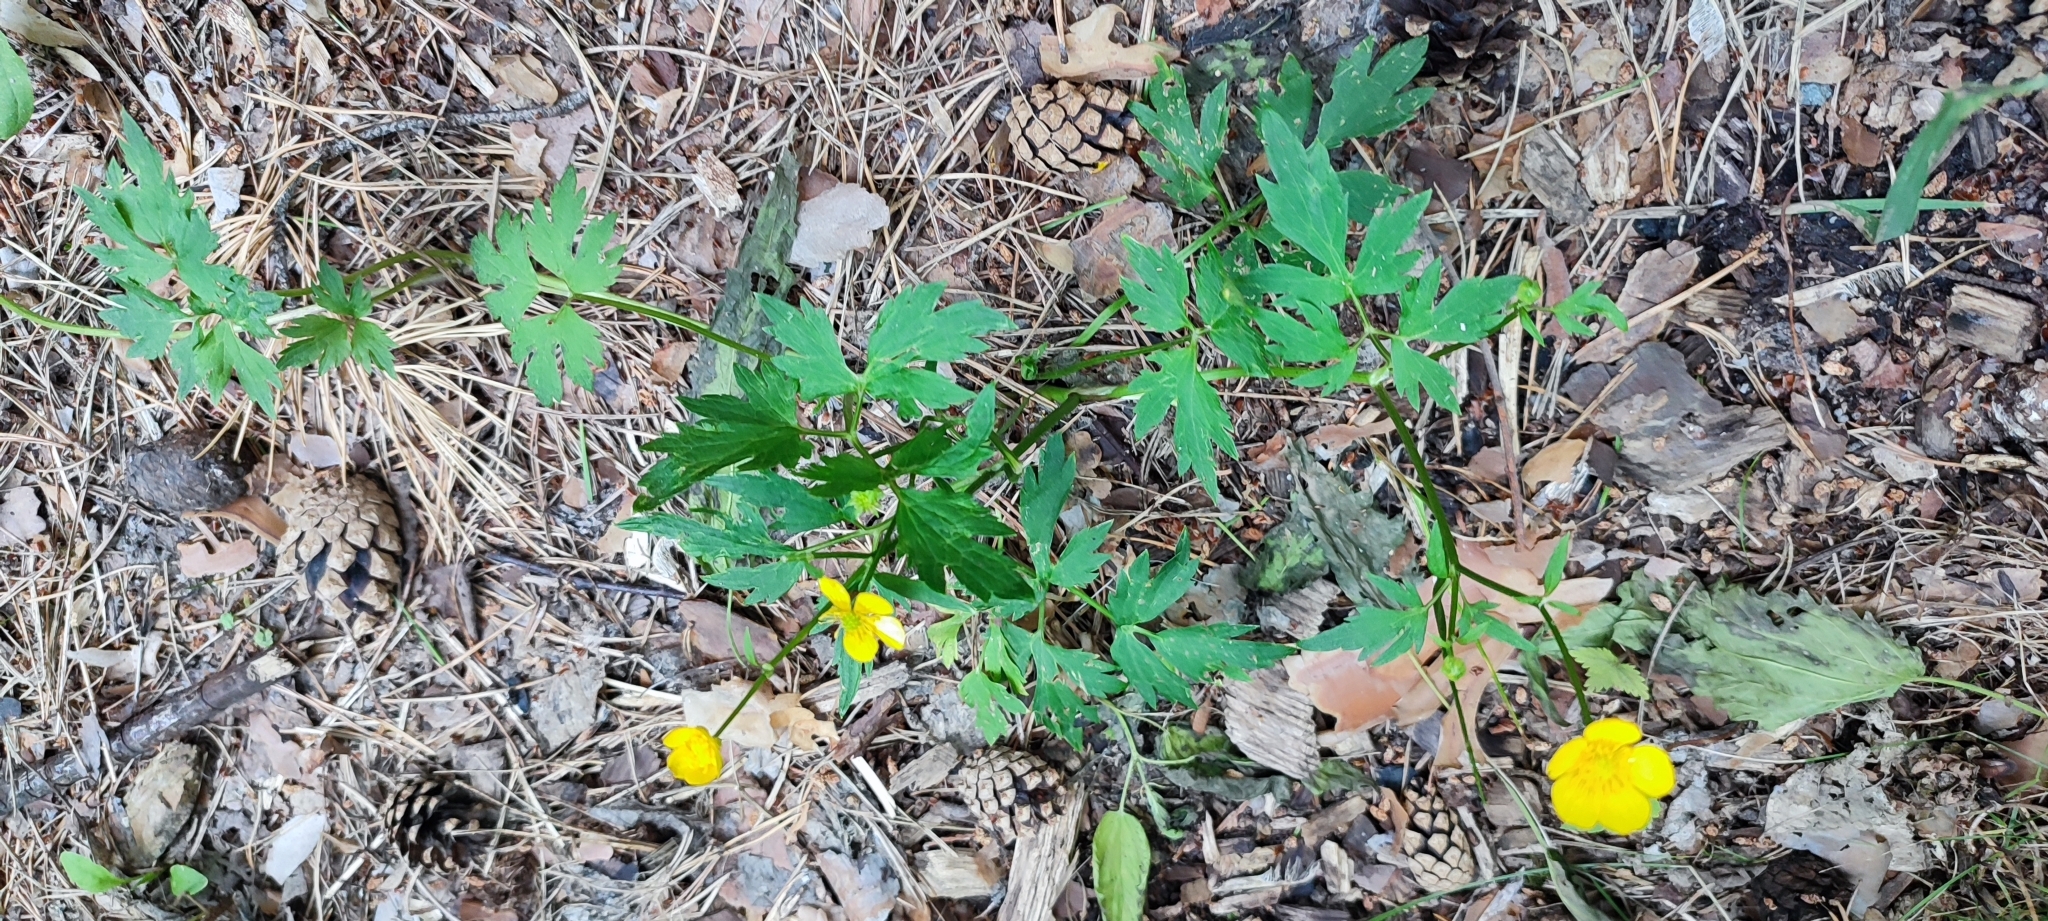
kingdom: Plantae
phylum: Tracheophyta
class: Magnoliopsida
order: Ranunculales
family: Ranunculaceae
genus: Ranunculus
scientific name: Ranunculus repens
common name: Creeping buttercup
